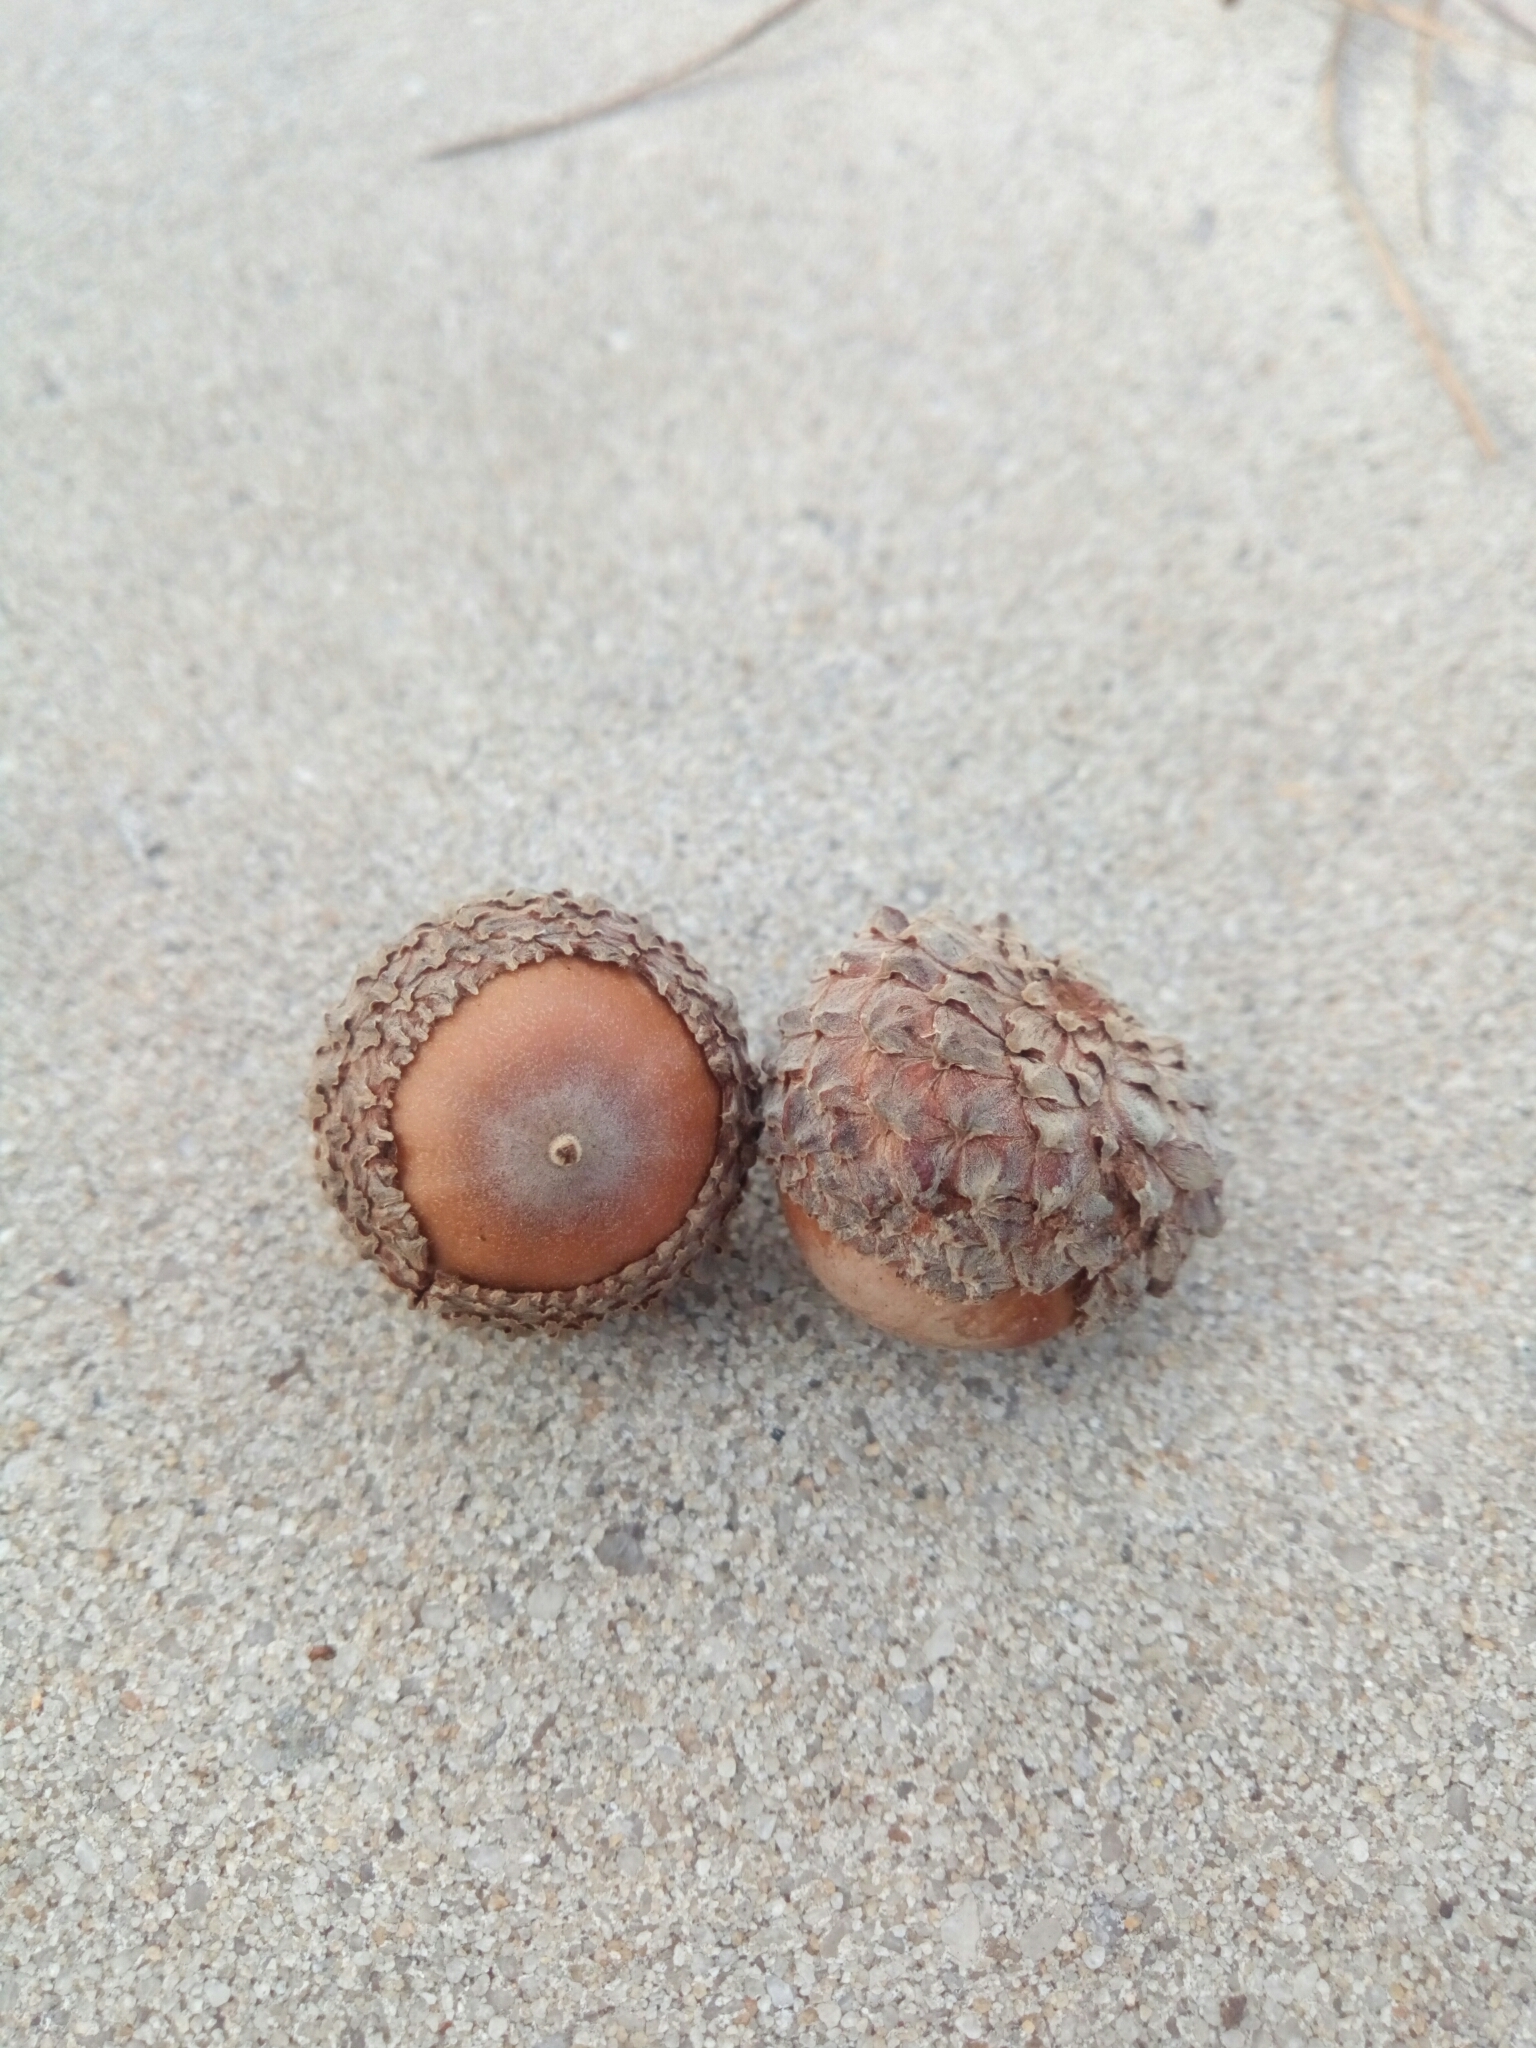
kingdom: Plantae
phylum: Tracheophyta
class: Magnoliopsida
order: Fagales
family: Fagaceae
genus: Quercus
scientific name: Quercus lyrata
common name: Overcup oak
